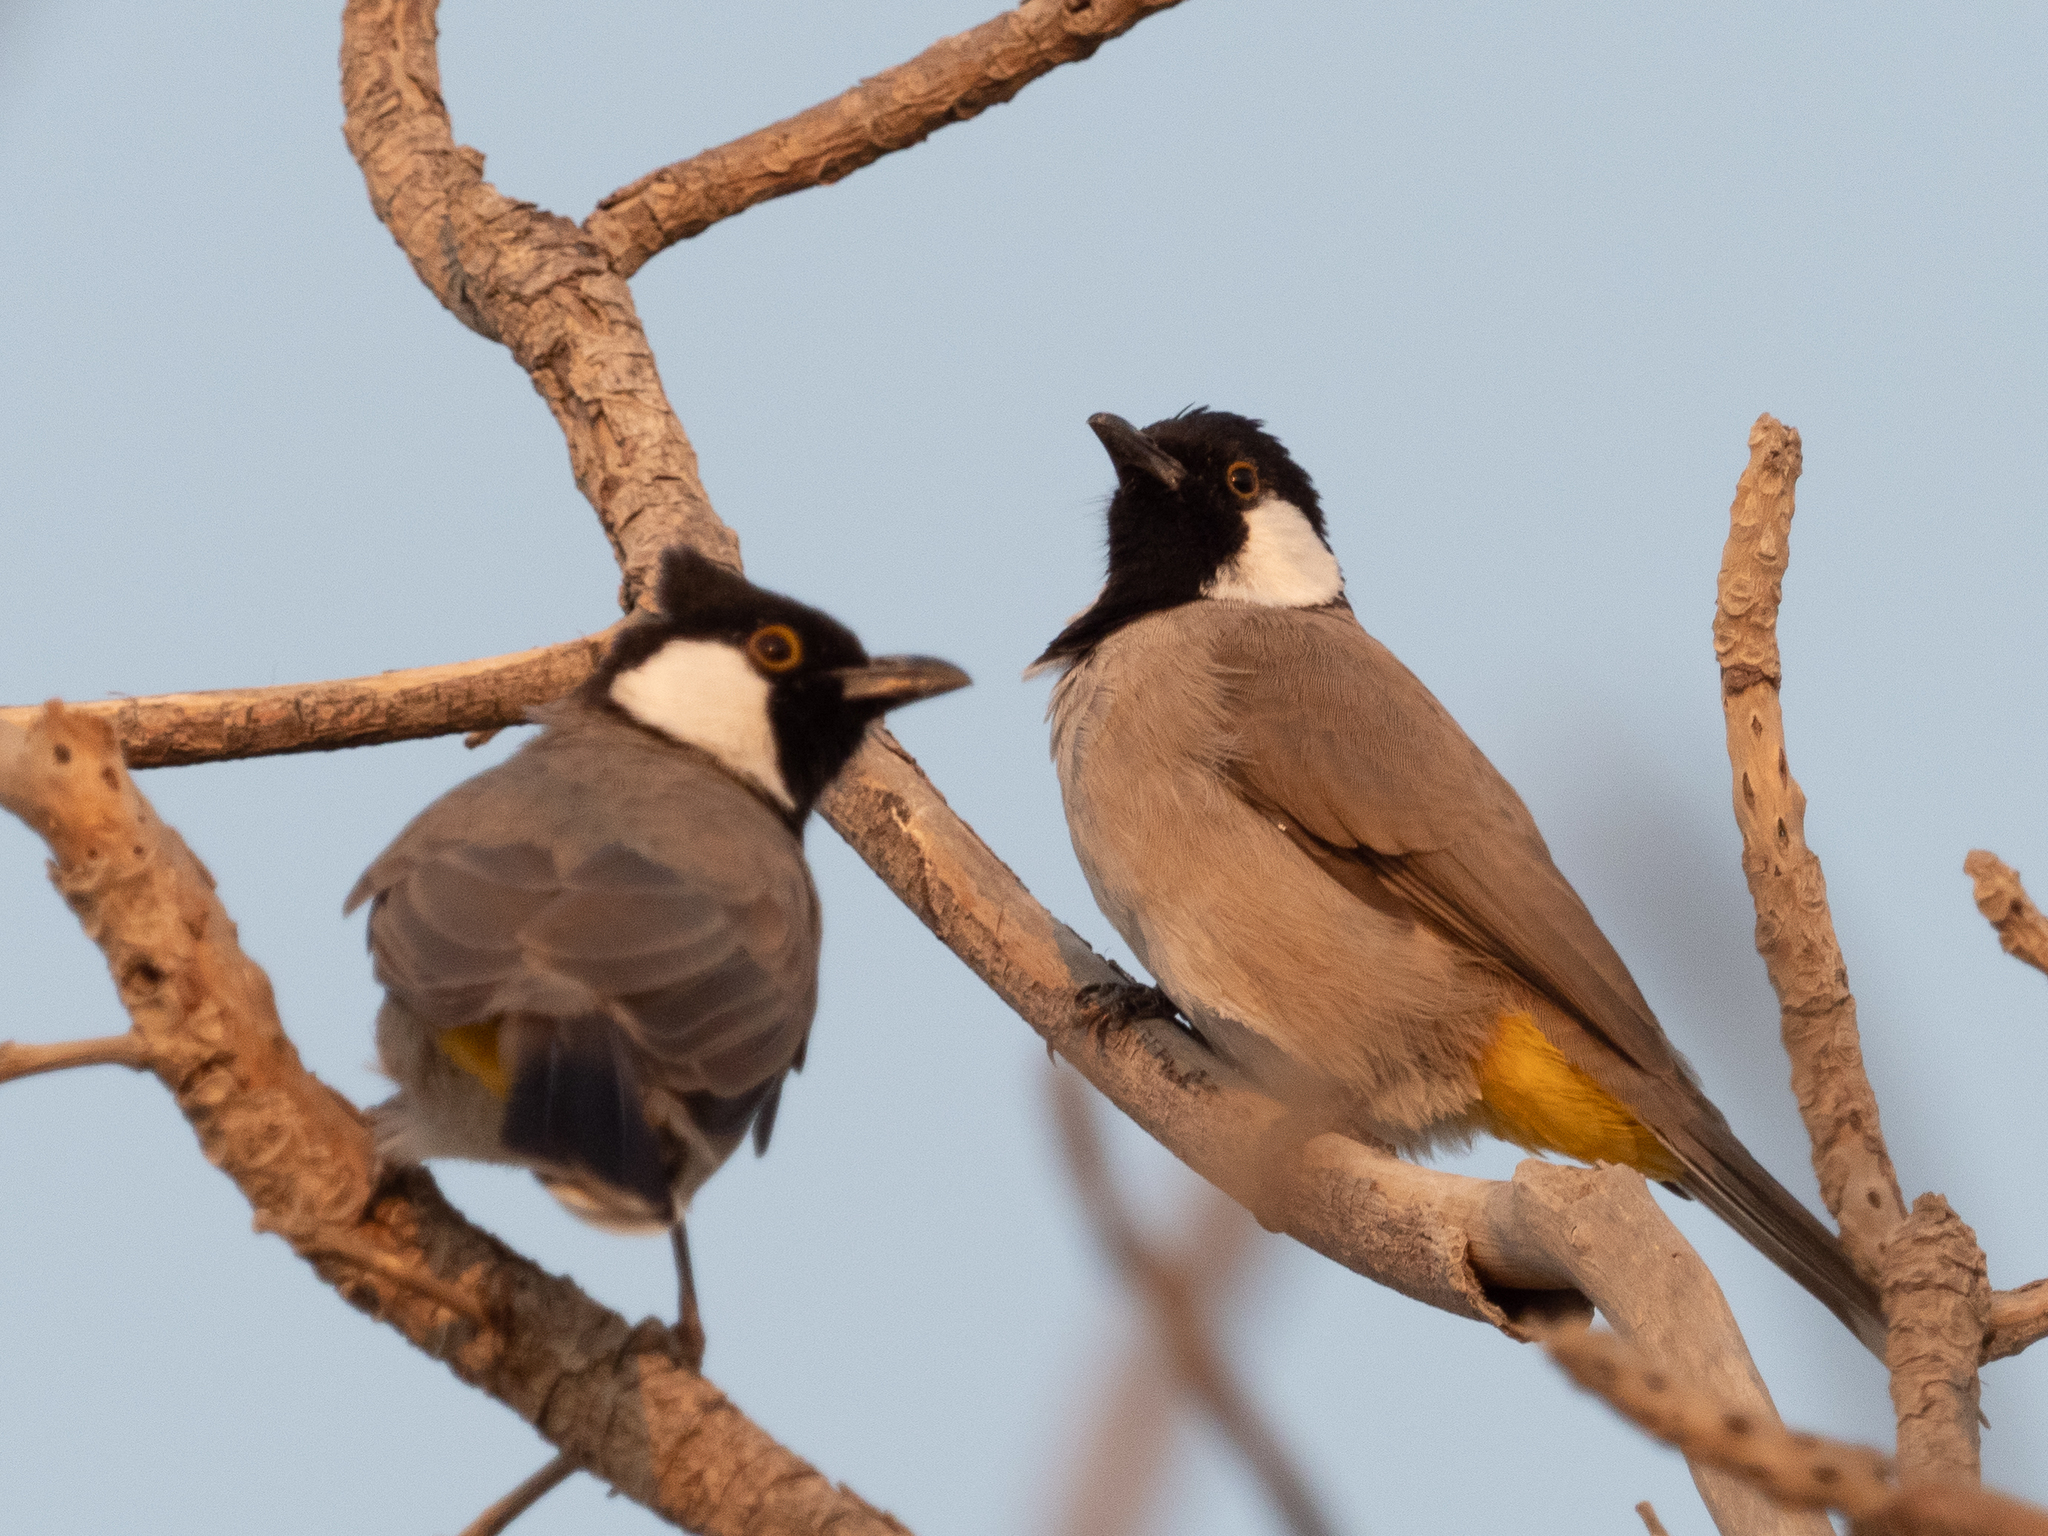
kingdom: Animalia
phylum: Chordata
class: Aves
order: Passeriformes
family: Pycnonotidae
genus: Pycnonotus
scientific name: Pycnonotus leucotis
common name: White-eared bulbul
